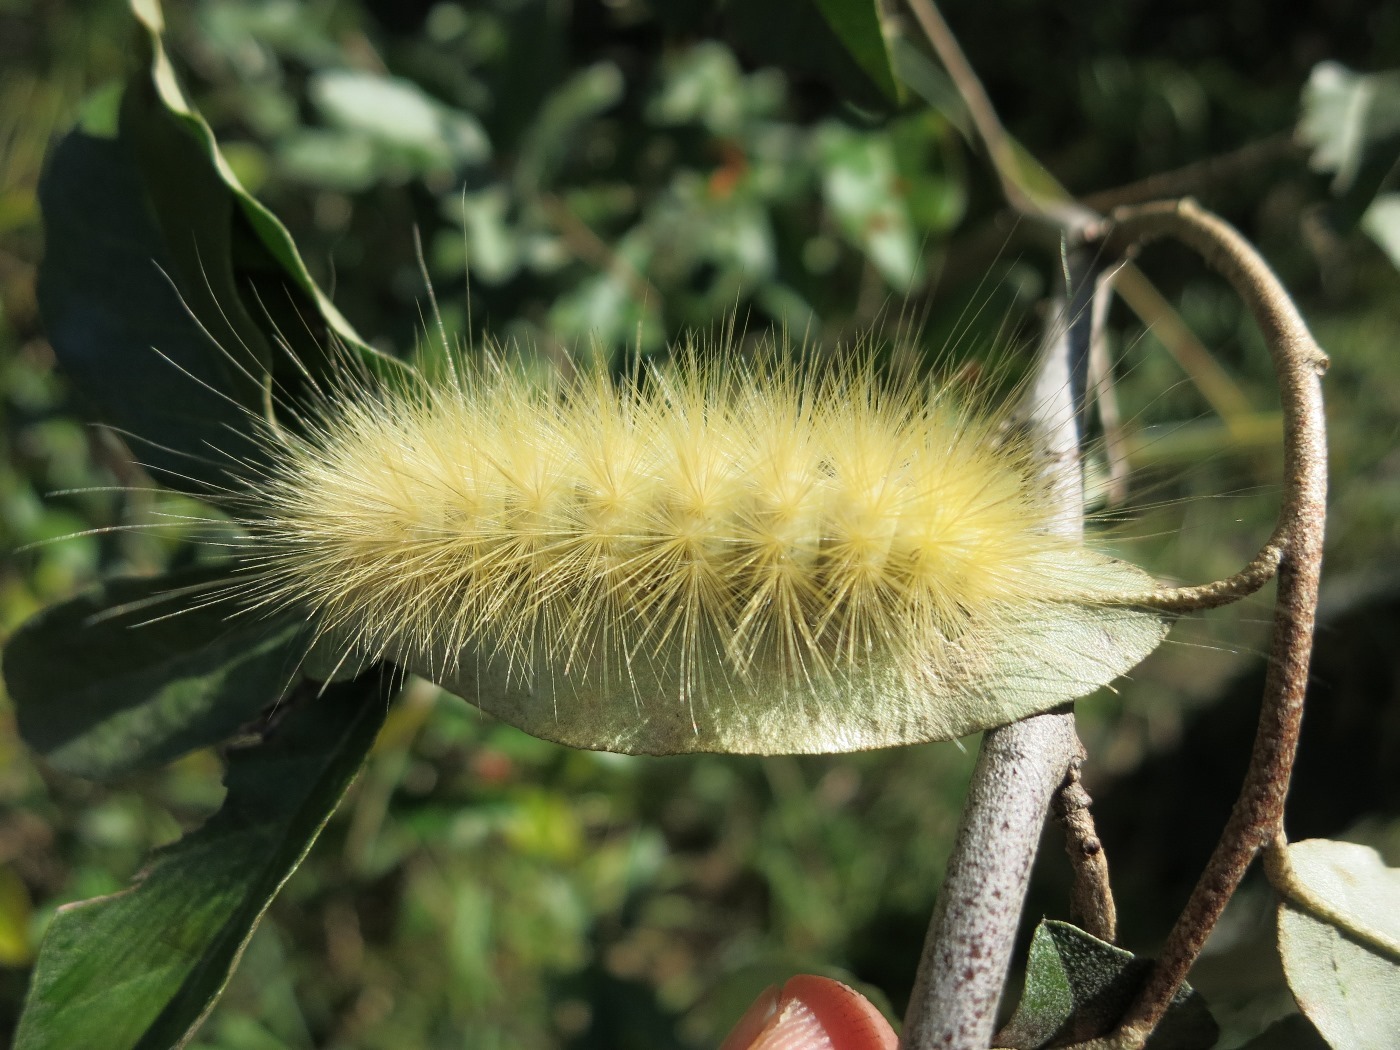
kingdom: Animalia
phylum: Arthropoda
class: Insecta
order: Lepidoptera
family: Erebidae
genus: Spilosoma
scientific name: Spilosoma virginica
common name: Virginia tiger moth
